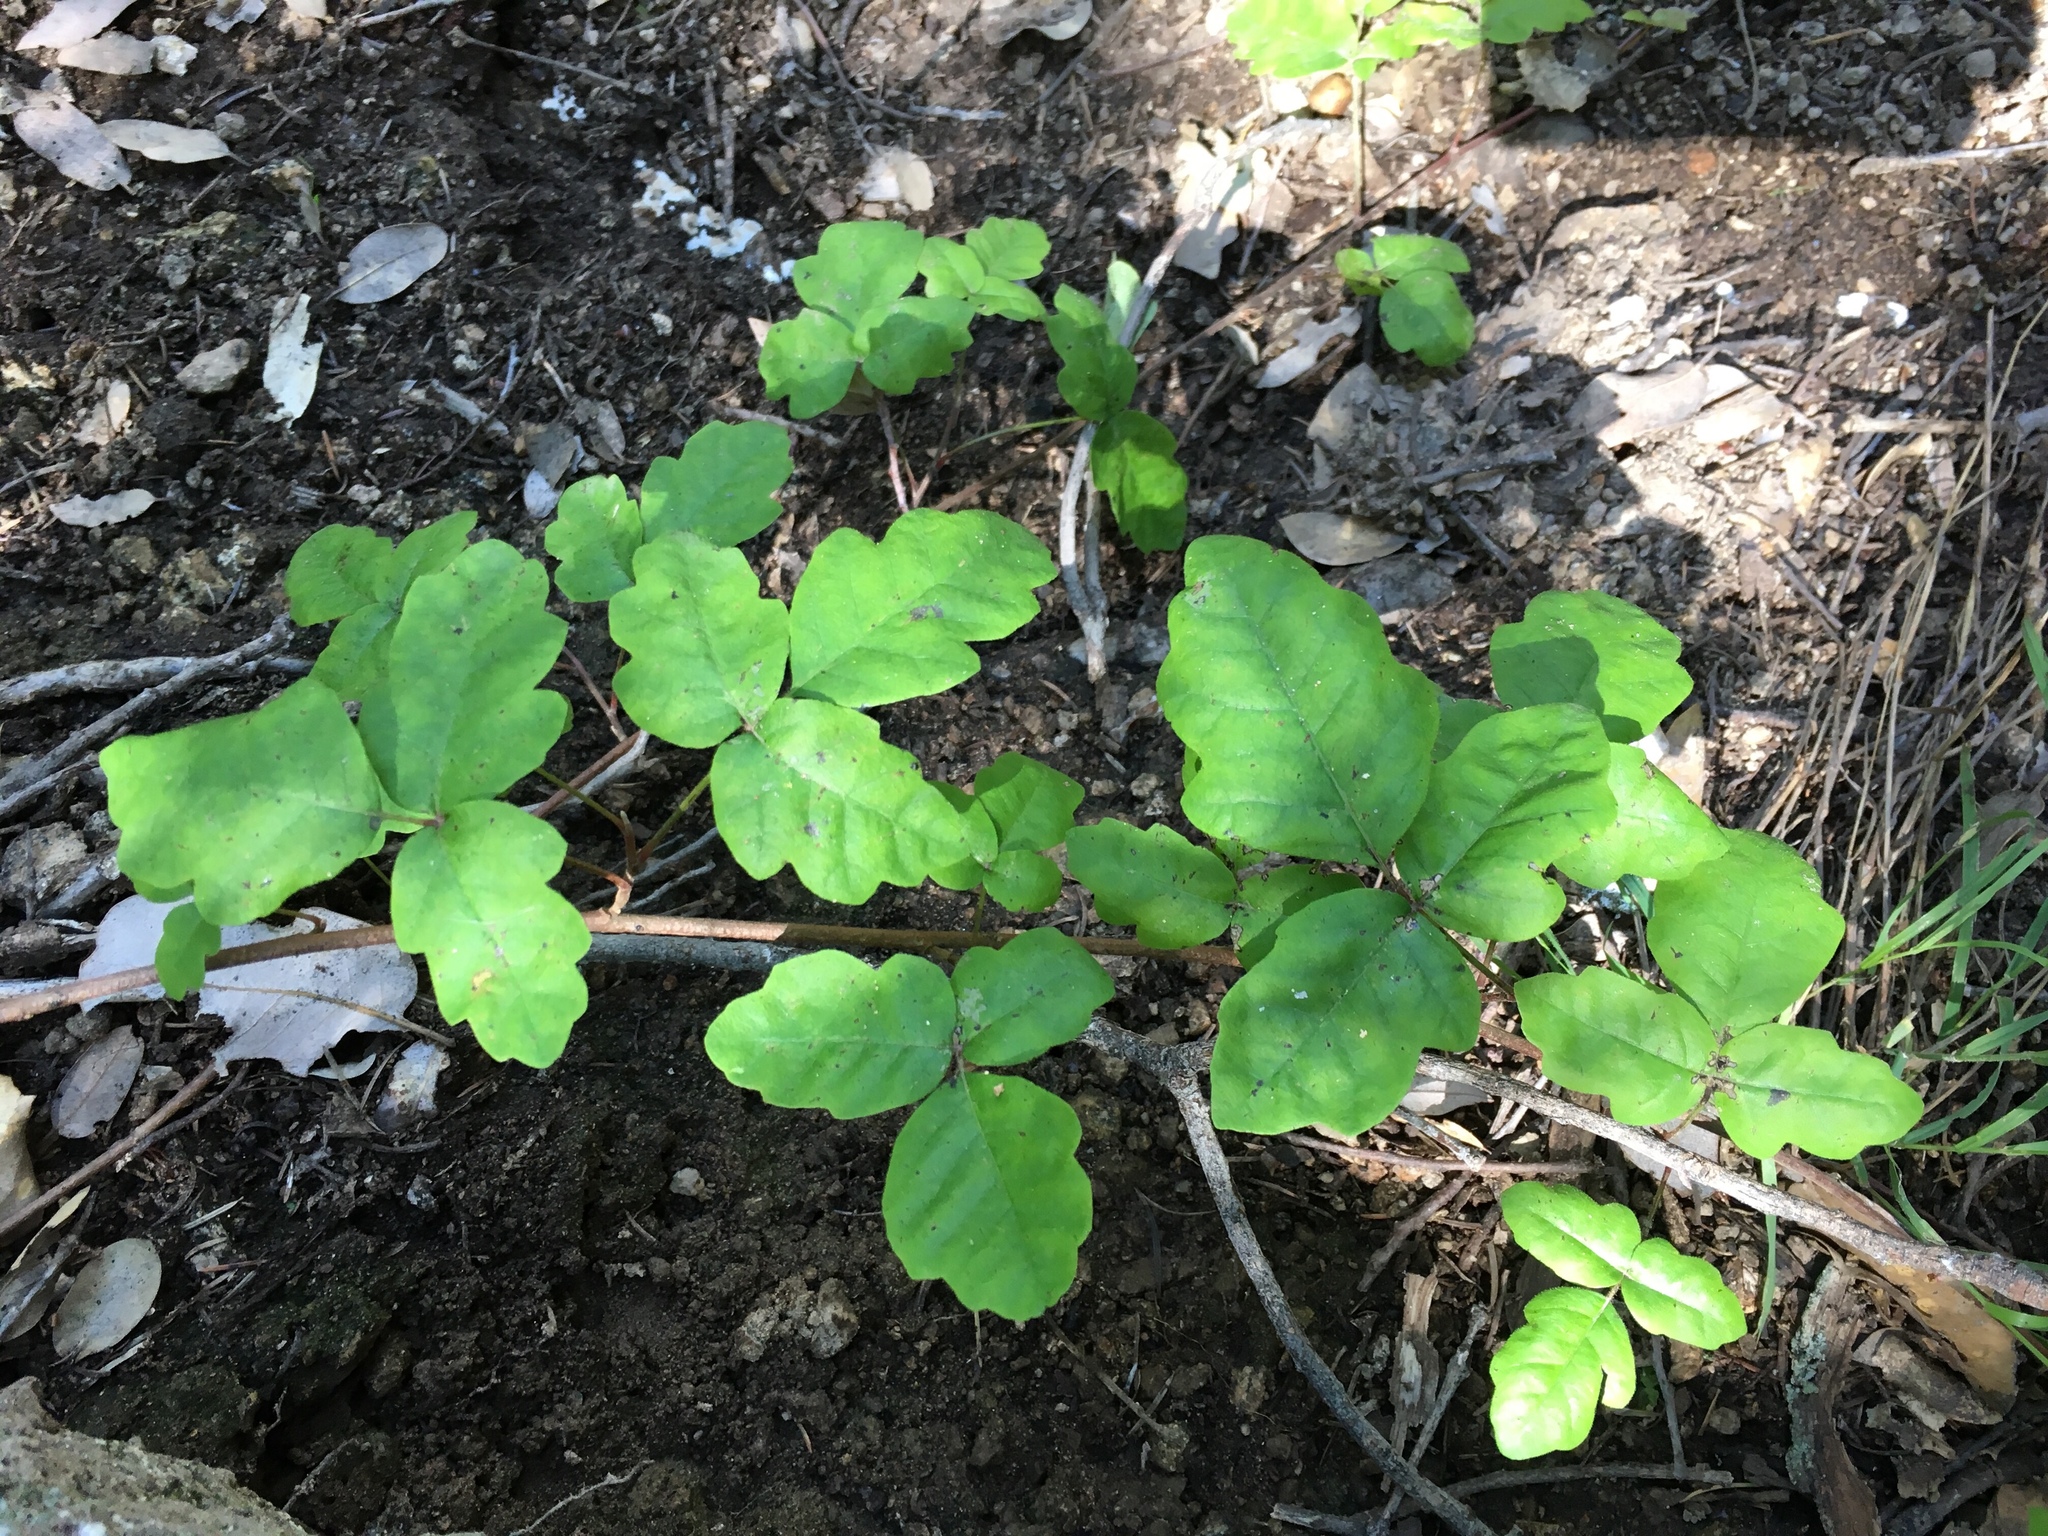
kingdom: Plantae
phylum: Tracheophyta
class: Magnoliopsida
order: Sapindales
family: Anacardiaceae
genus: Toxicodendron
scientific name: Toxicodendron diversilobum
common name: Pacific poison-oak
